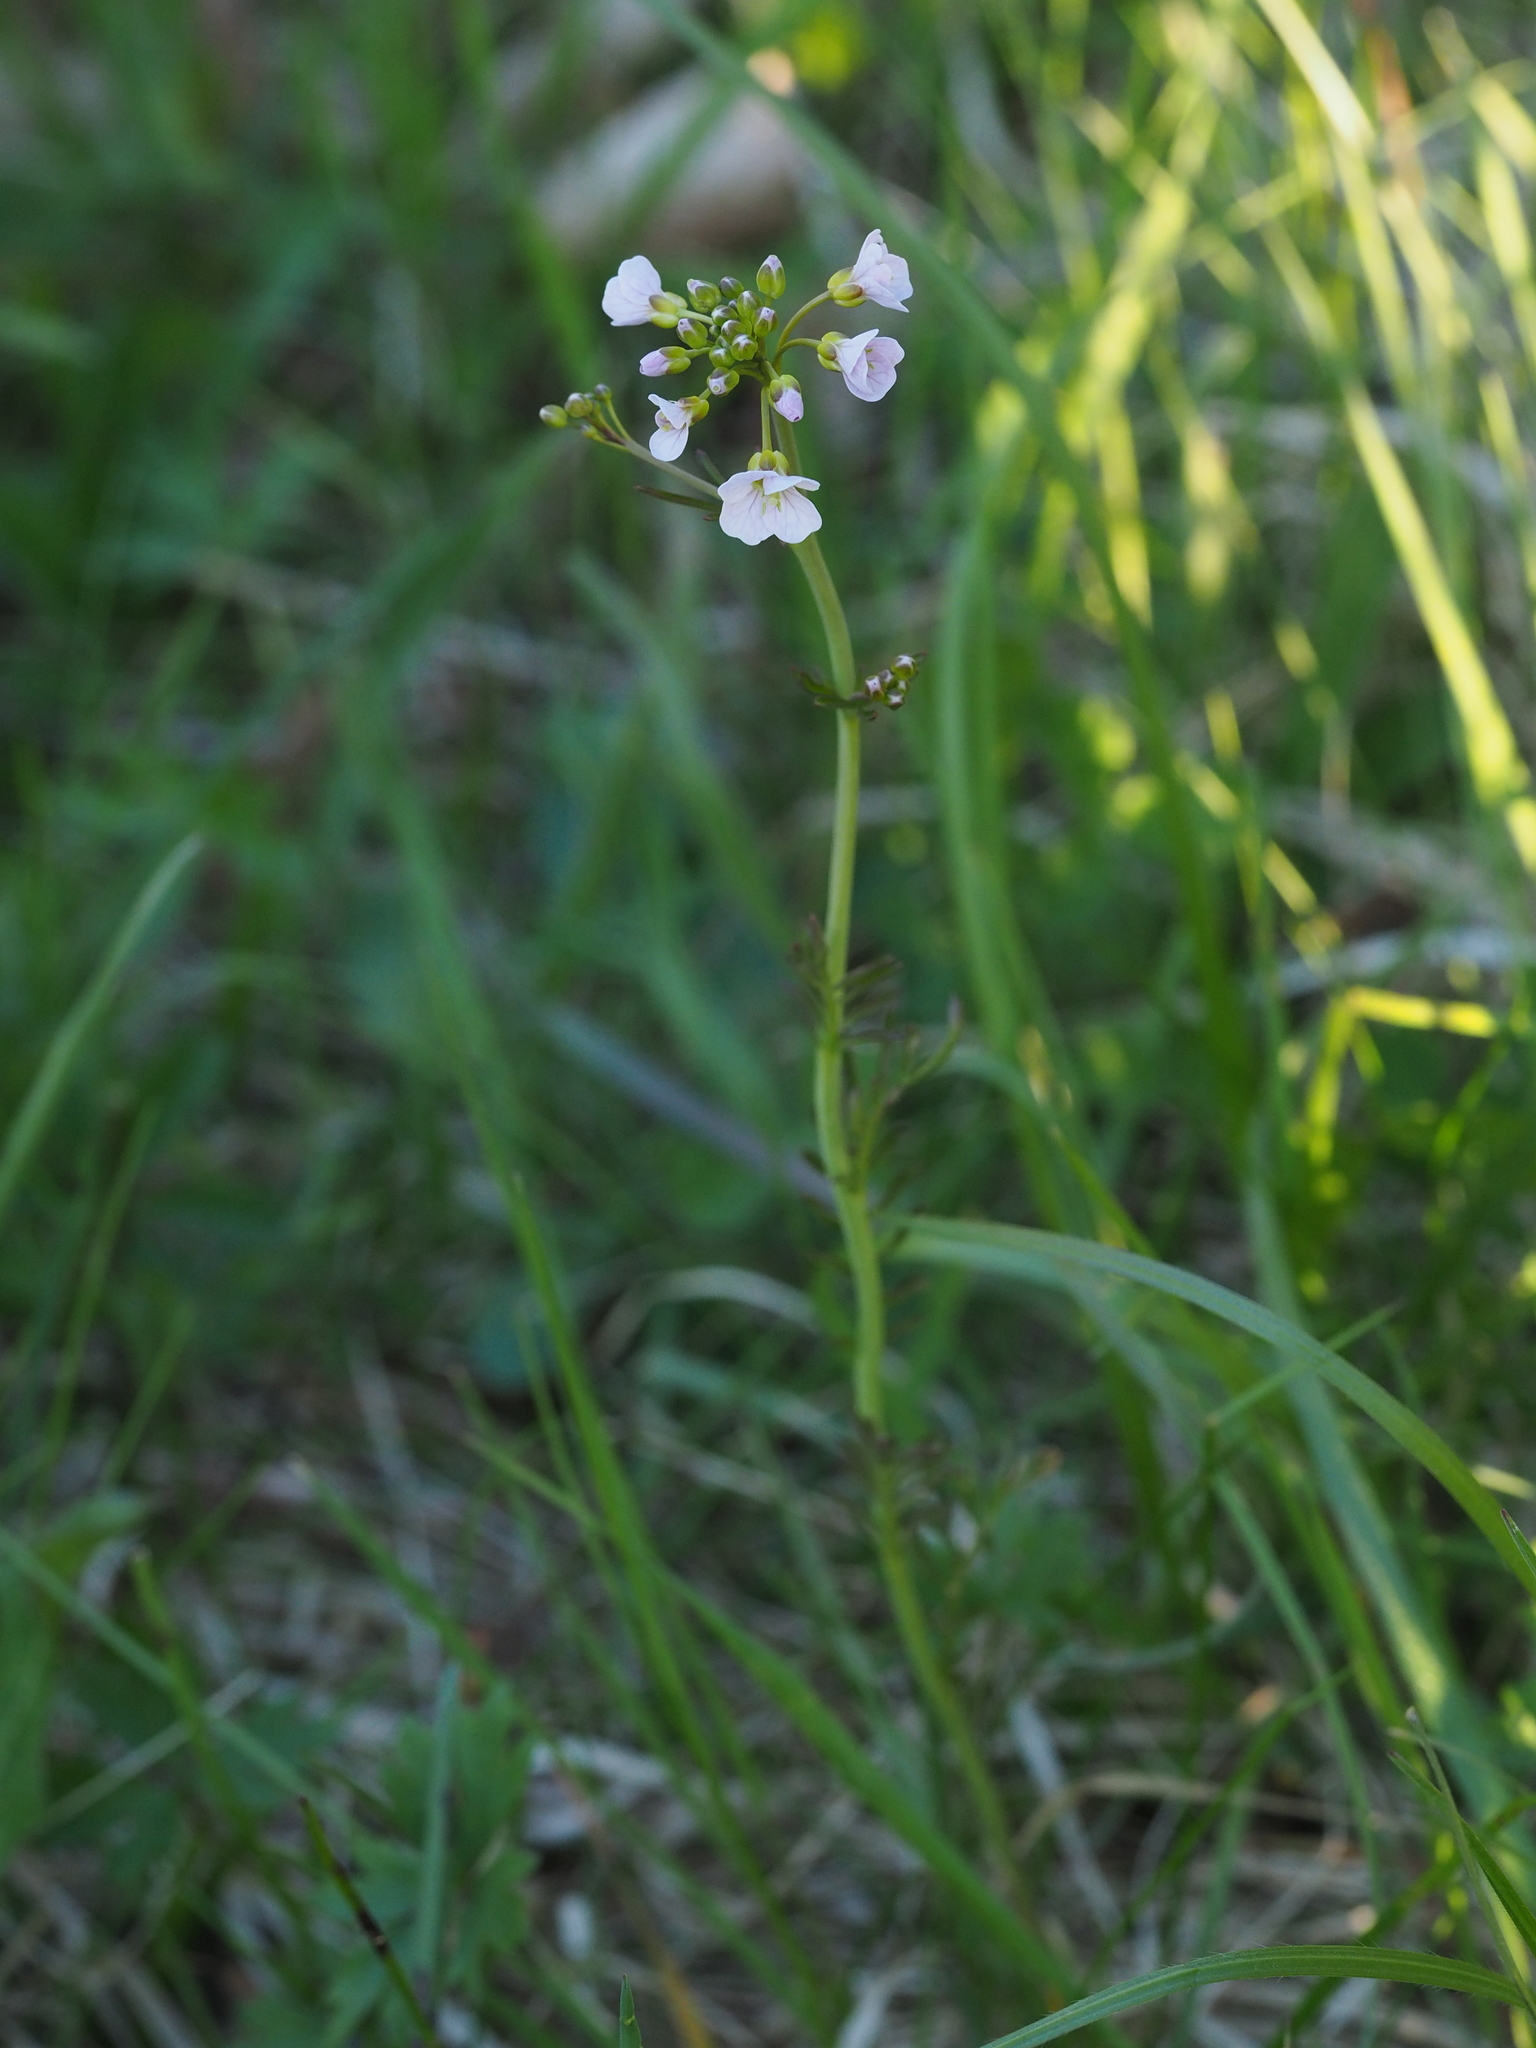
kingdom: Plantae
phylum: Tracheophyta
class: Magnoliopsida
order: Brassicales
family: Brassicaceae
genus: Cardamine
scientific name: Cardamine pratensis
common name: Cuckoo flower
